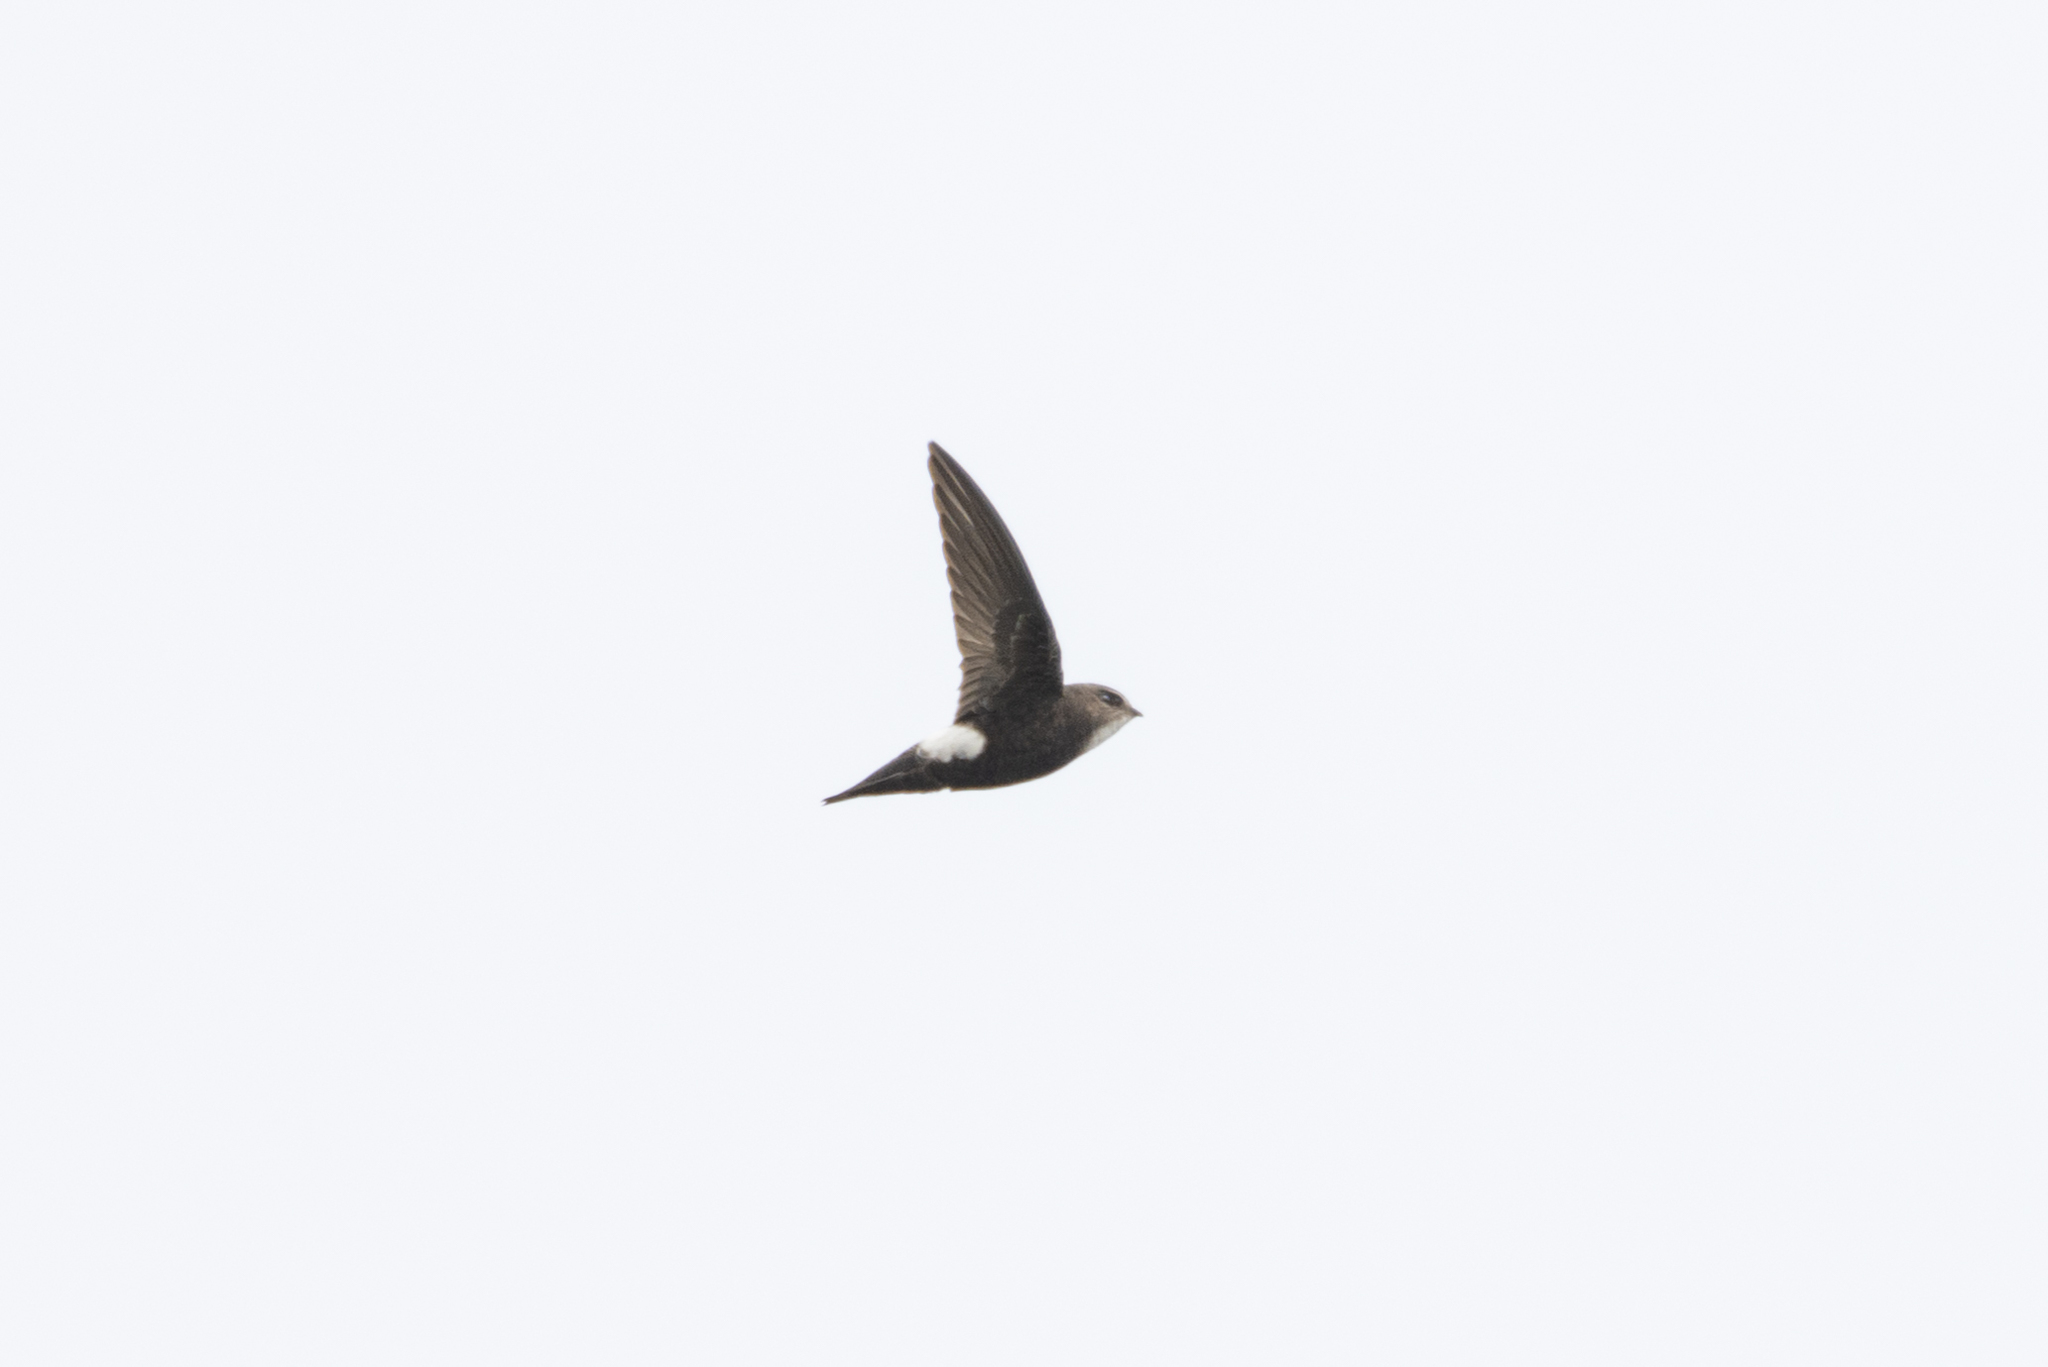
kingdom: Animalia
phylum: Chordata
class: Aves
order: Apodiformes
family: Apodidae
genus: Apus
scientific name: Apus nipalensis
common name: House swift
